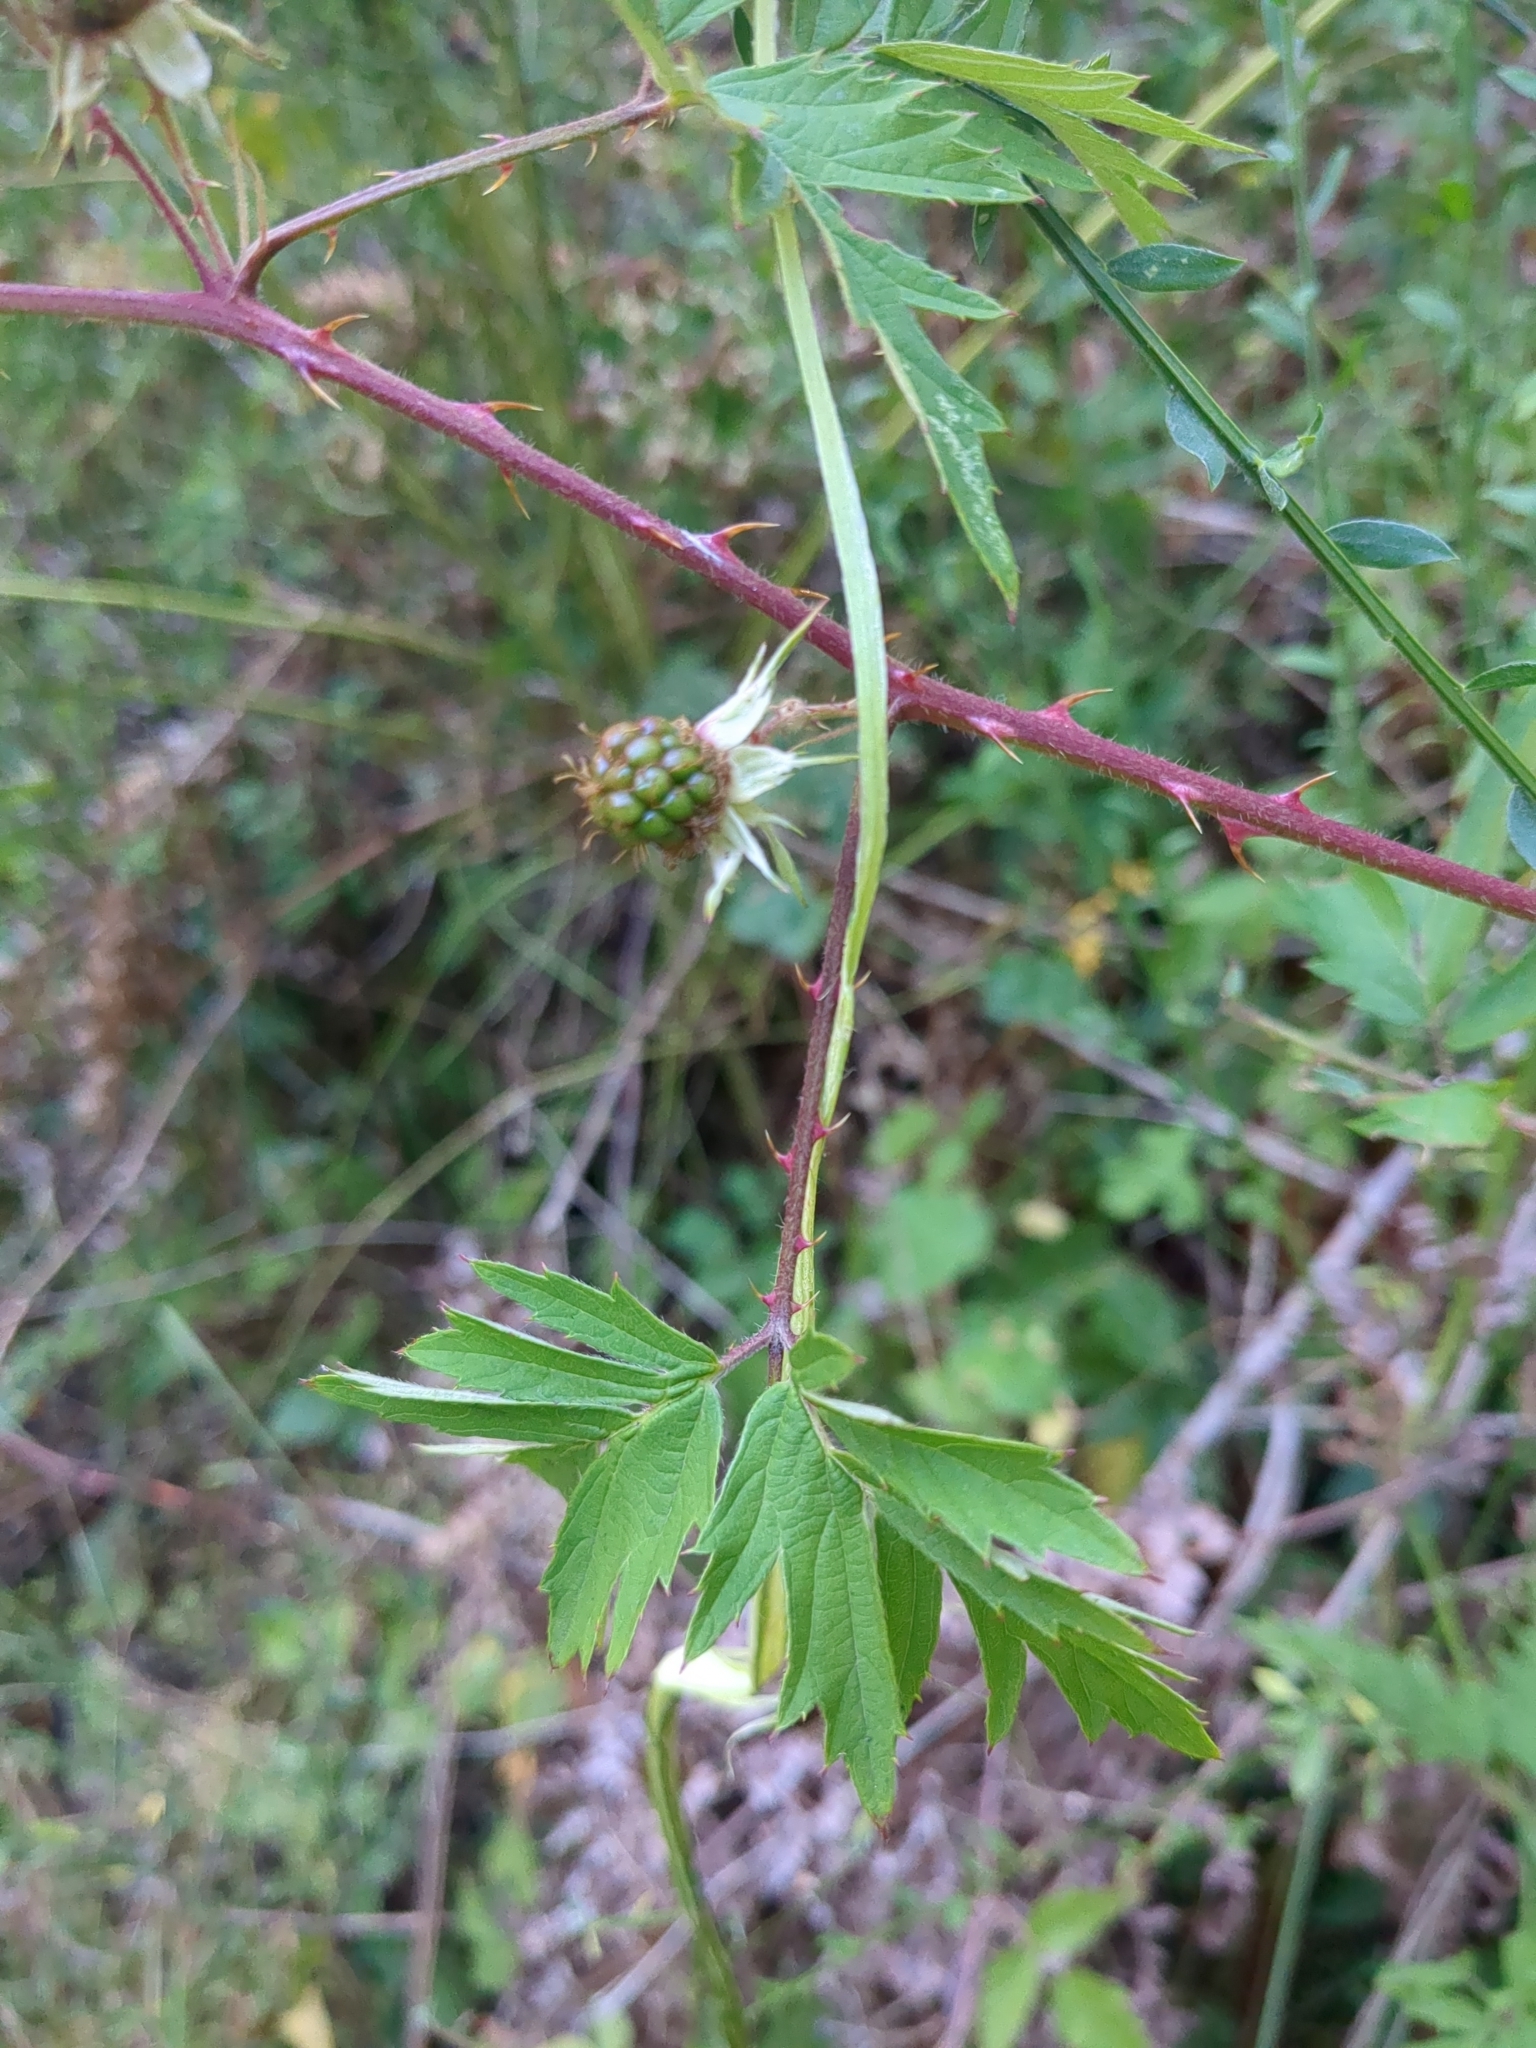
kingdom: Plantae
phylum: Tracheophyta
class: Magnoliopsida
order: Rosales
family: Rosaceae
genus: Rubus
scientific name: Rubus laciniatus
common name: Evergreen blackberry
